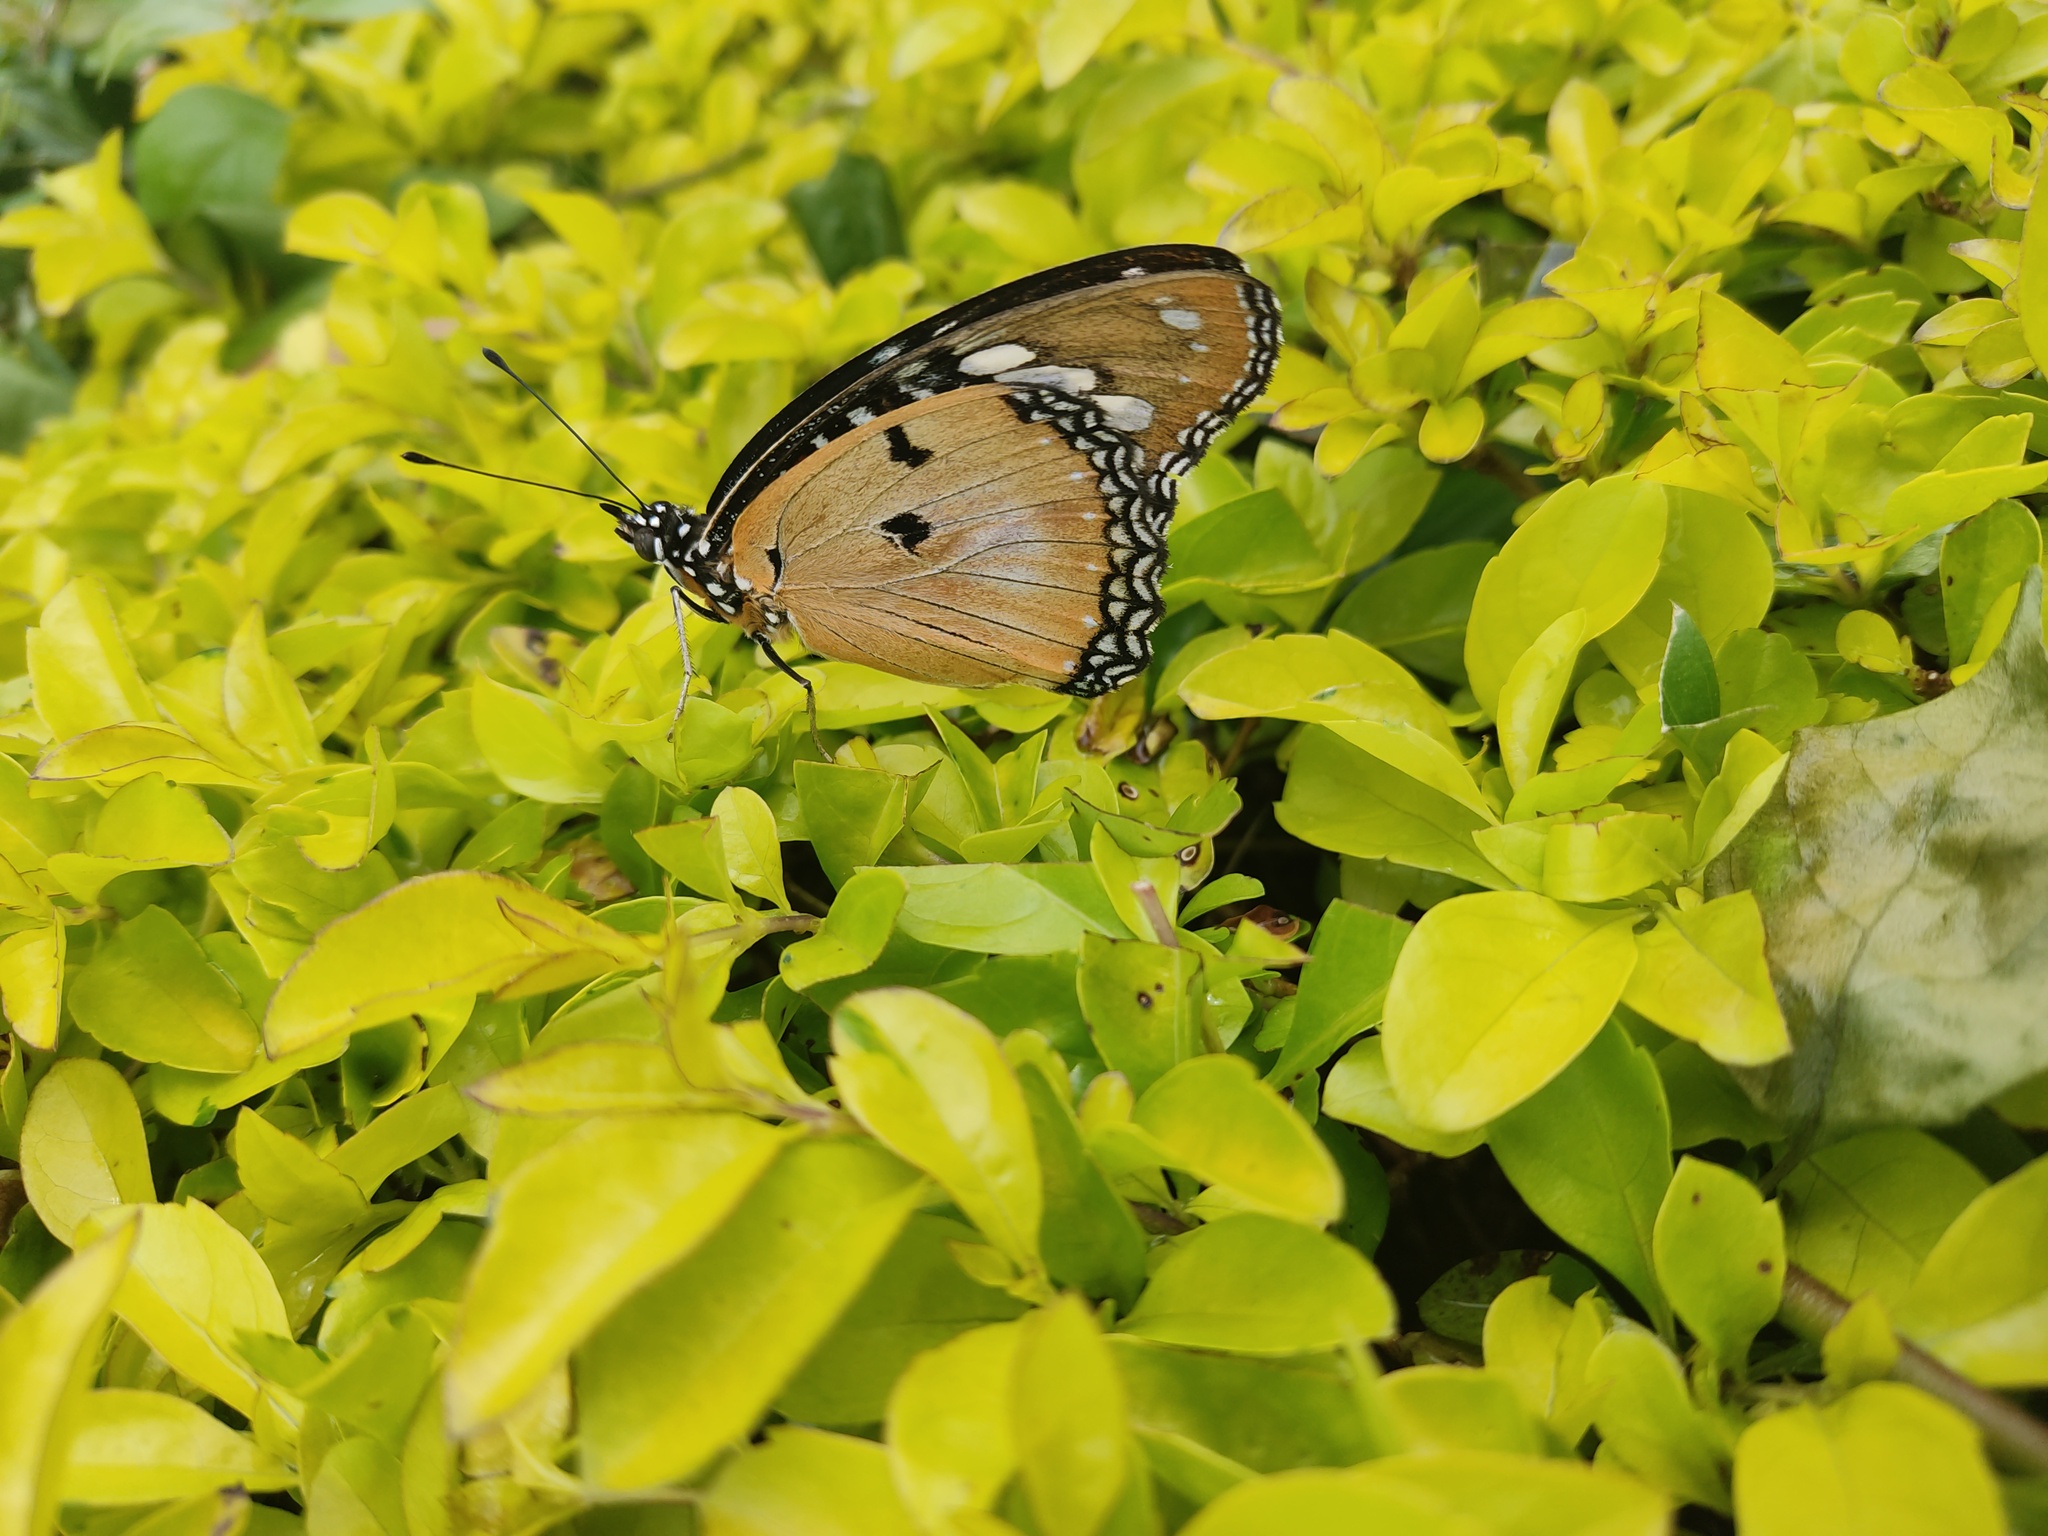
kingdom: Animalia
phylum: Arthropoda
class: Insecta
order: Lepidoptera
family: Nymphalidae
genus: Hypolimnas
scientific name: Hypolimnas misippus
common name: False plain tiger
